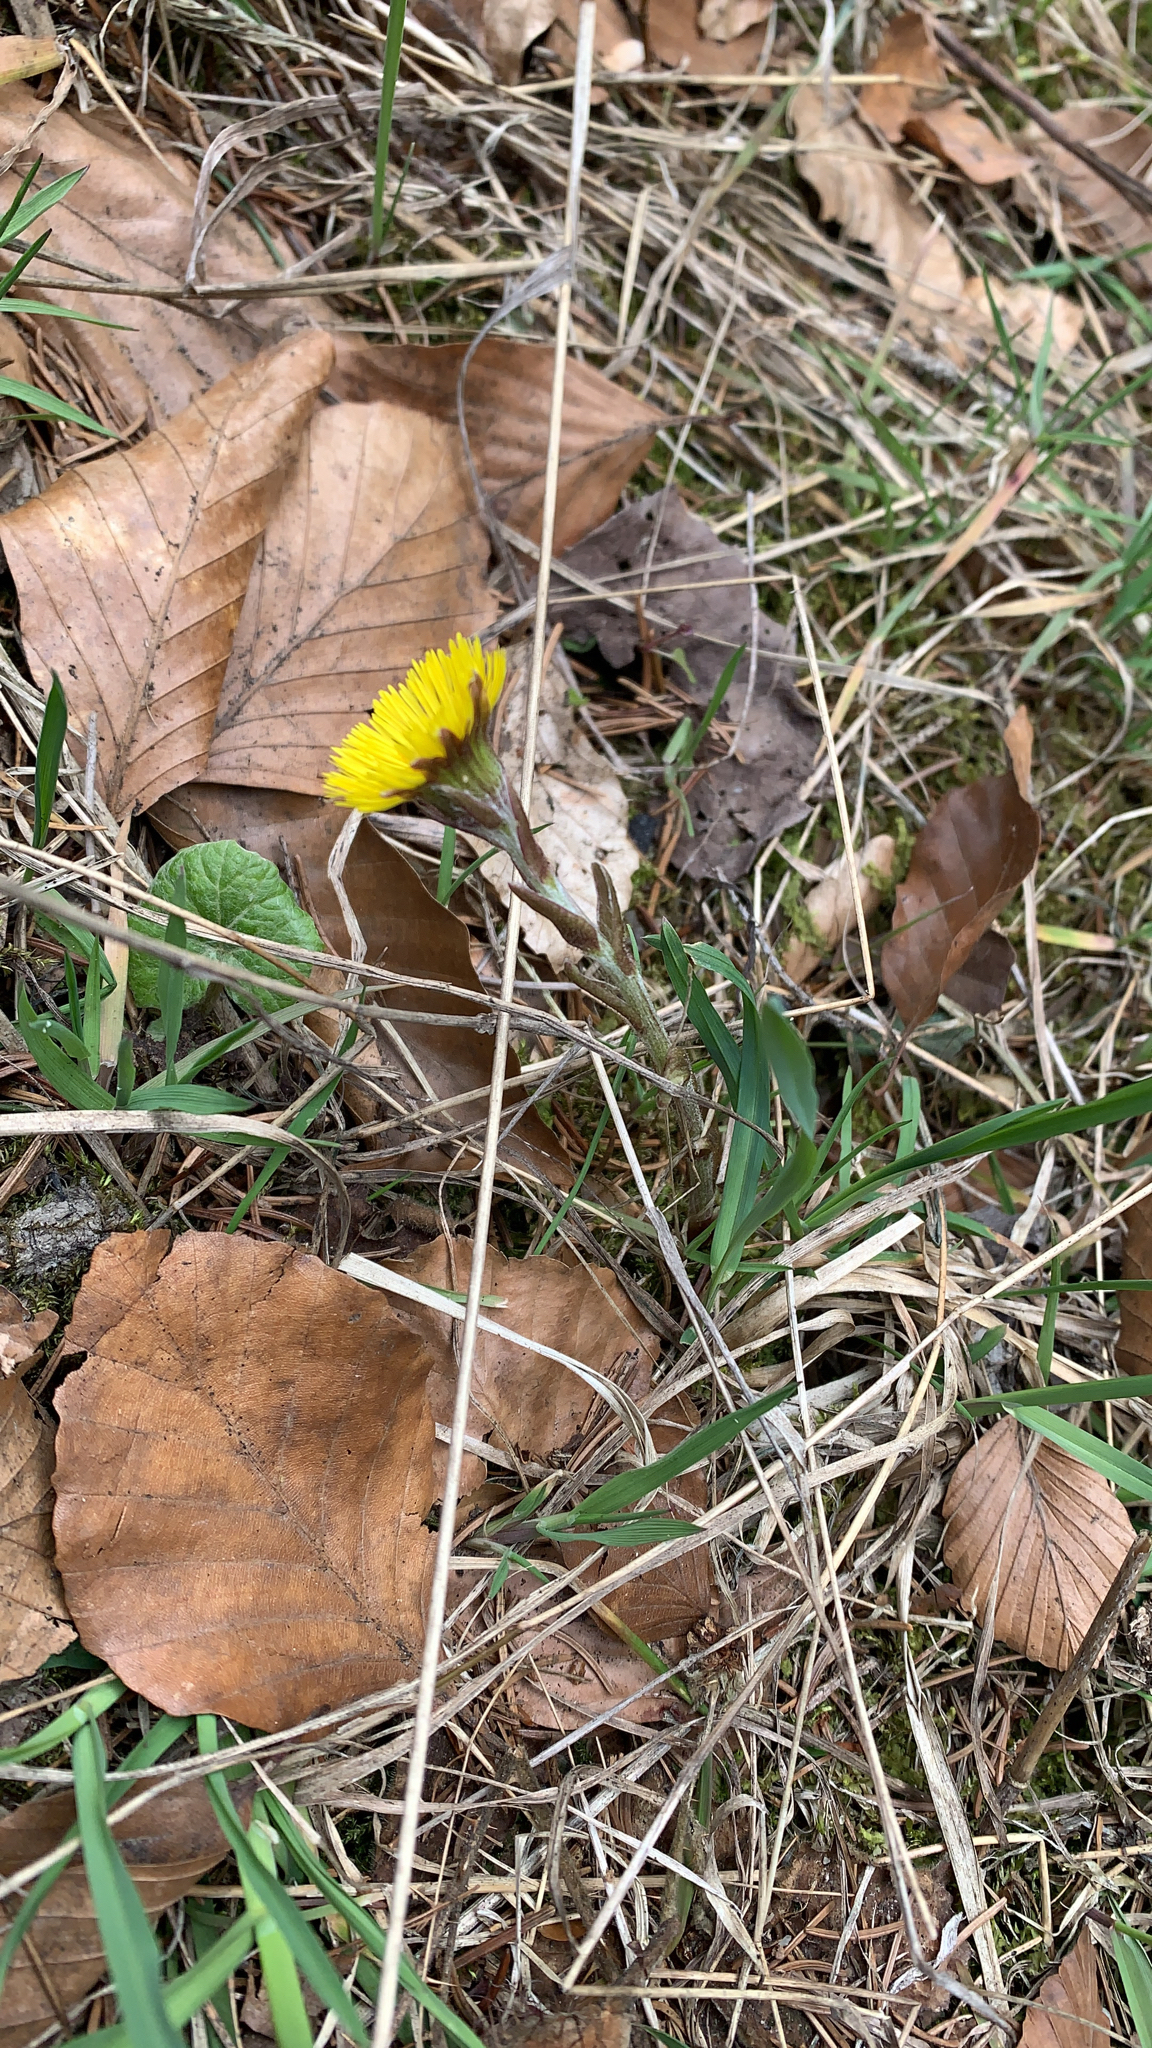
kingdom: Plantae
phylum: Tracheophyta
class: Magnoliopsida
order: Asterales
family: Asteraceae
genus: Tussilago
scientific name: Tussilago farfara
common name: Coltsfoot
